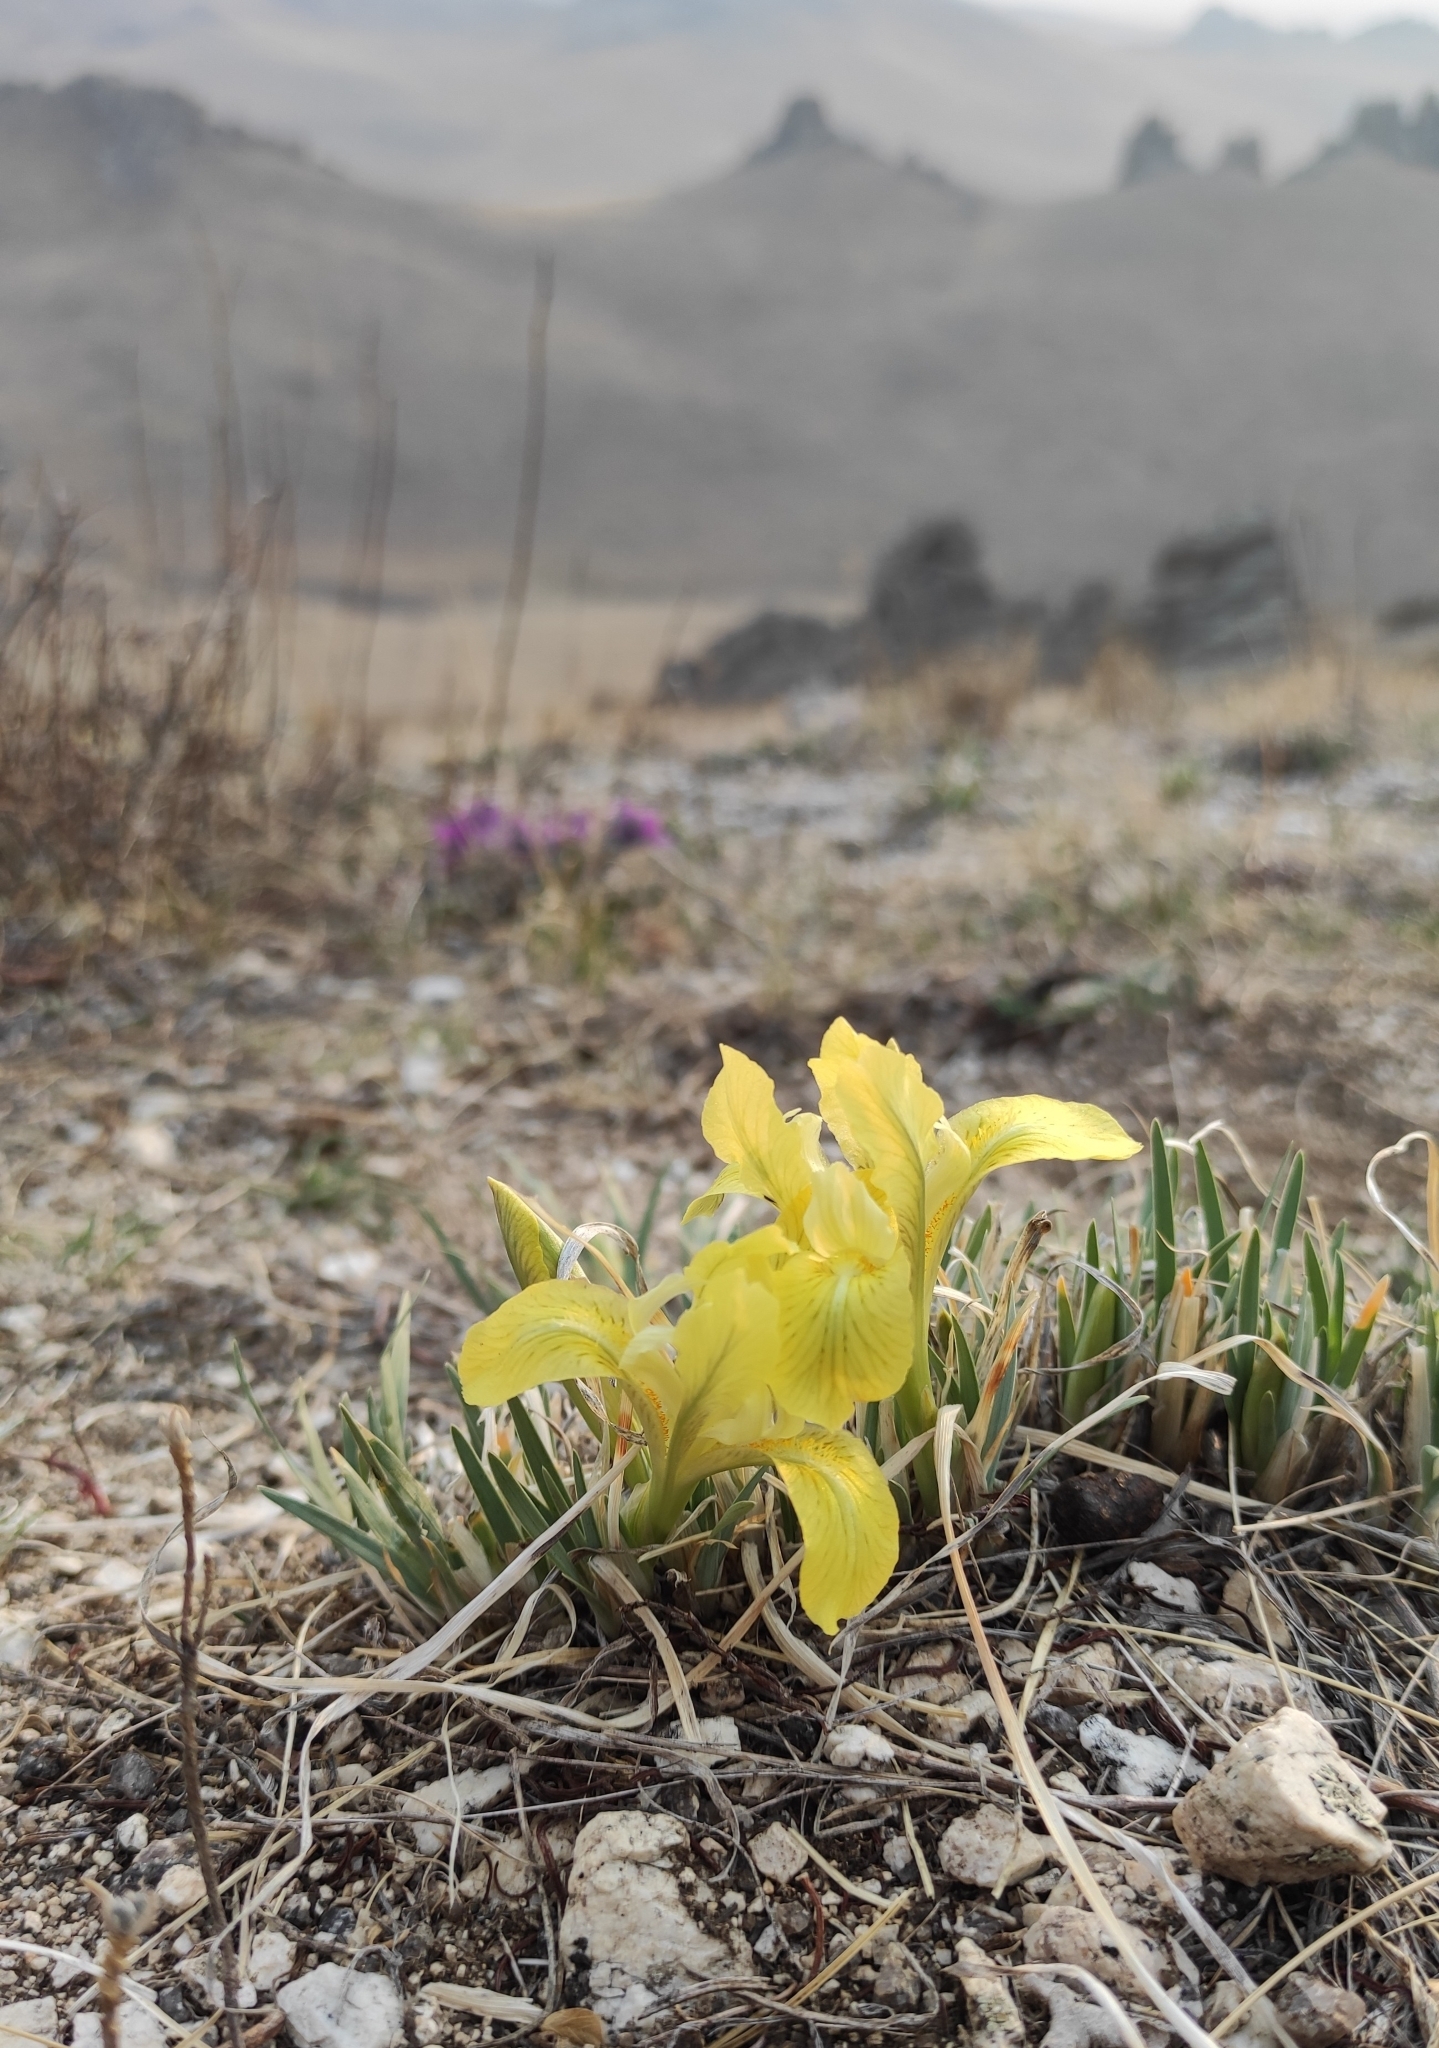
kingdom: Plantae
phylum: Tracheophyta
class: Liliopsida
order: Asparagales
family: Iridaceae
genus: Iris
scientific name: Iris potaninii
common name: Curl-sheath iris
